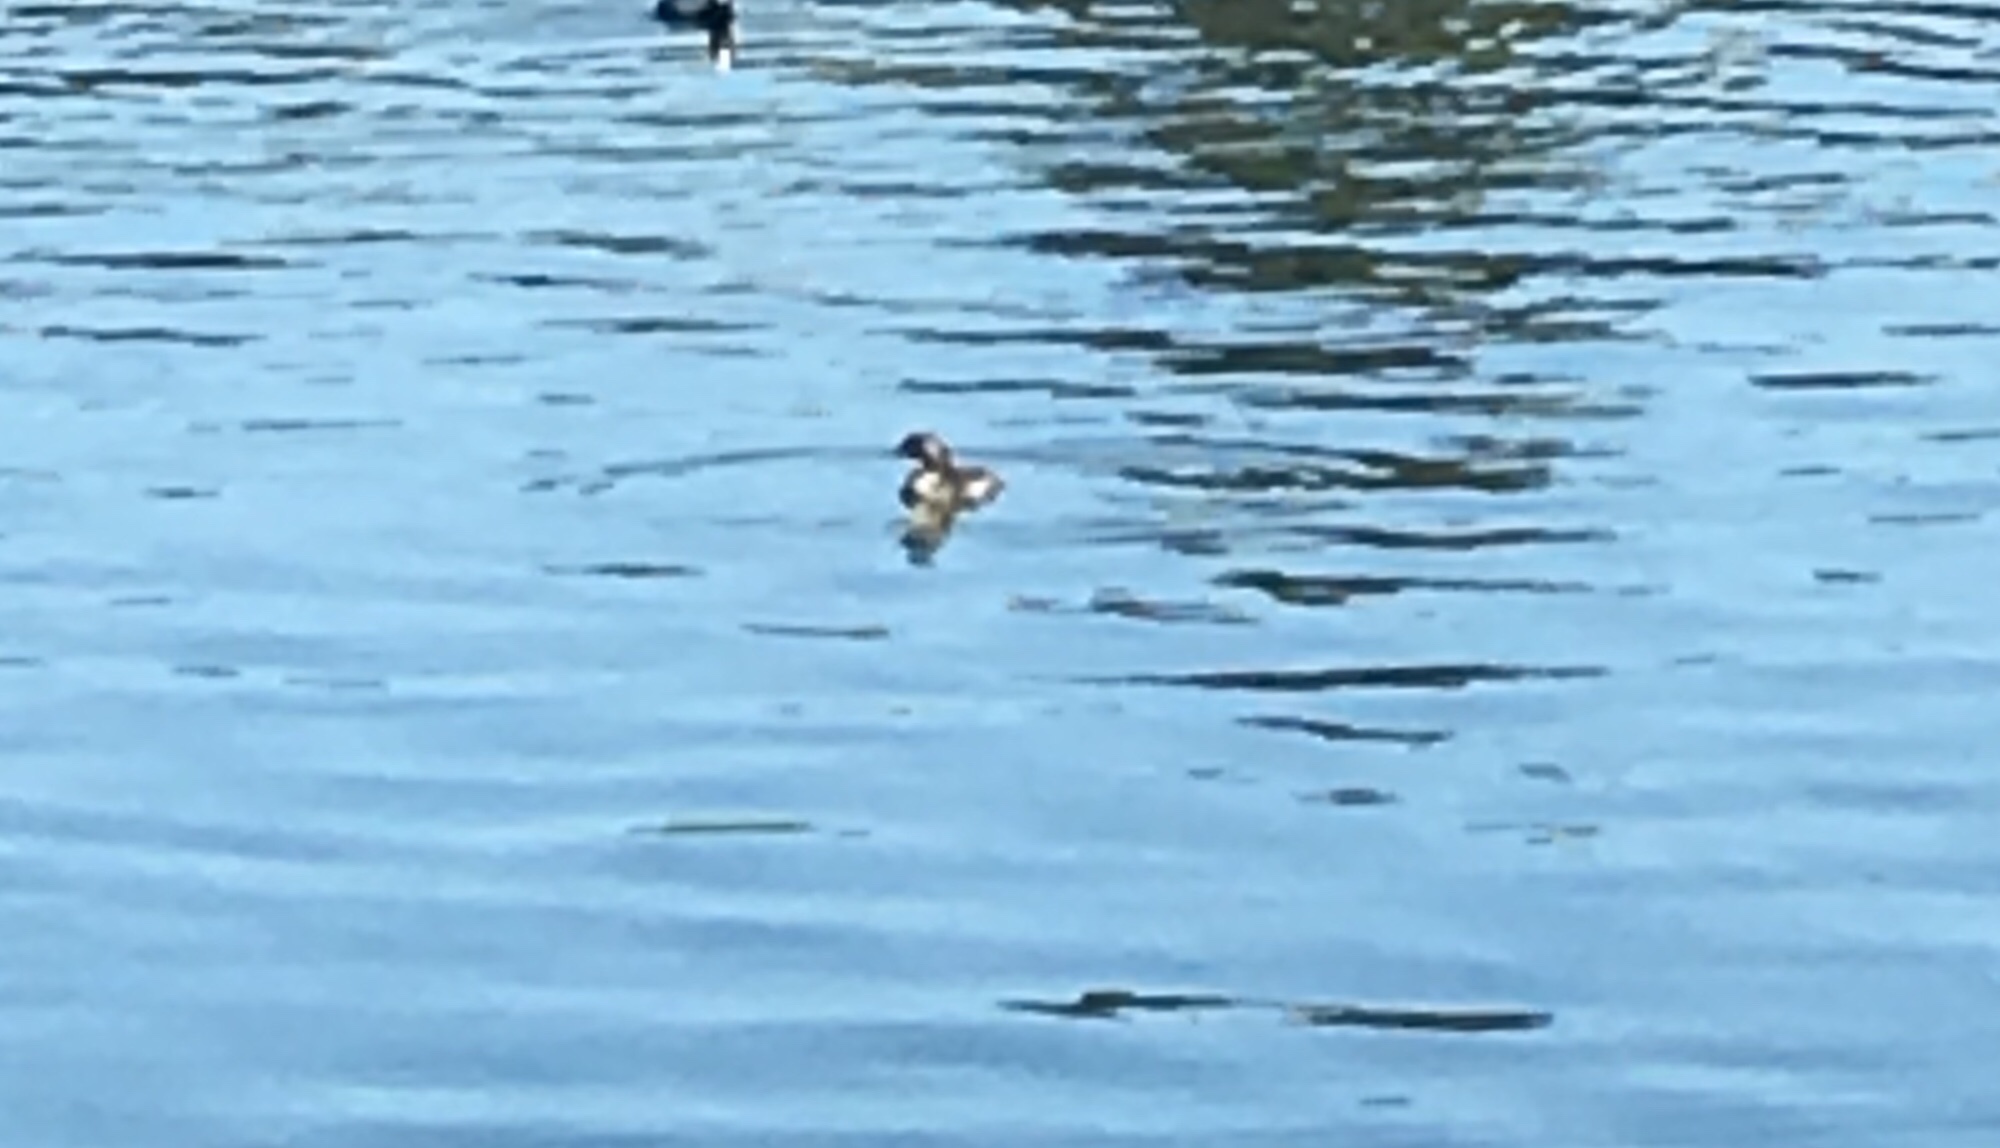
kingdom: Animalia
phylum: Chordata
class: Aves
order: Podicipediformes
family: Podicipedidae
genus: Podiceps
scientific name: Podiceps nigricollis
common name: Black-necked grebe
